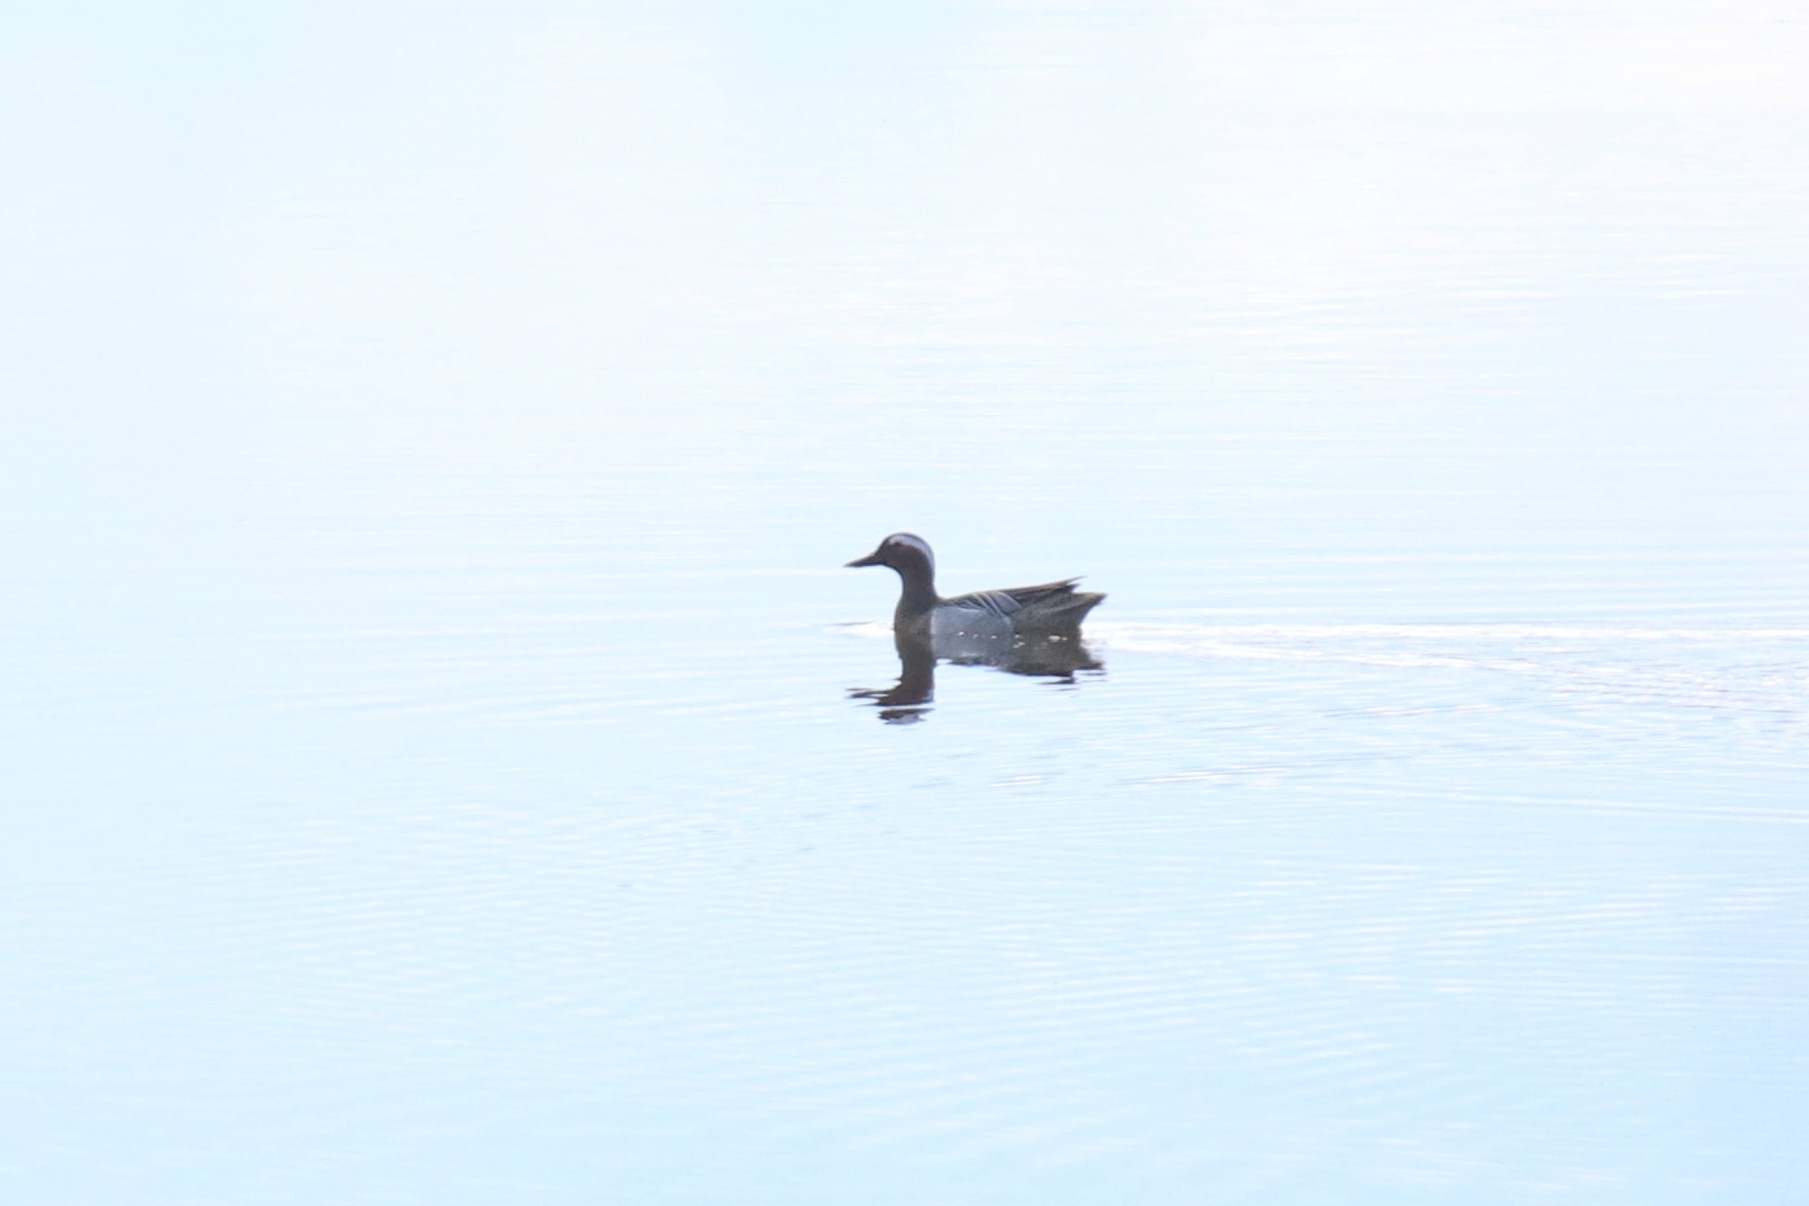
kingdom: Animalia
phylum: Chordata
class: Aves
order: Anseriformes
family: Anatidae
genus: Spatula
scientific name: Spatula querquedula
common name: Garganey
